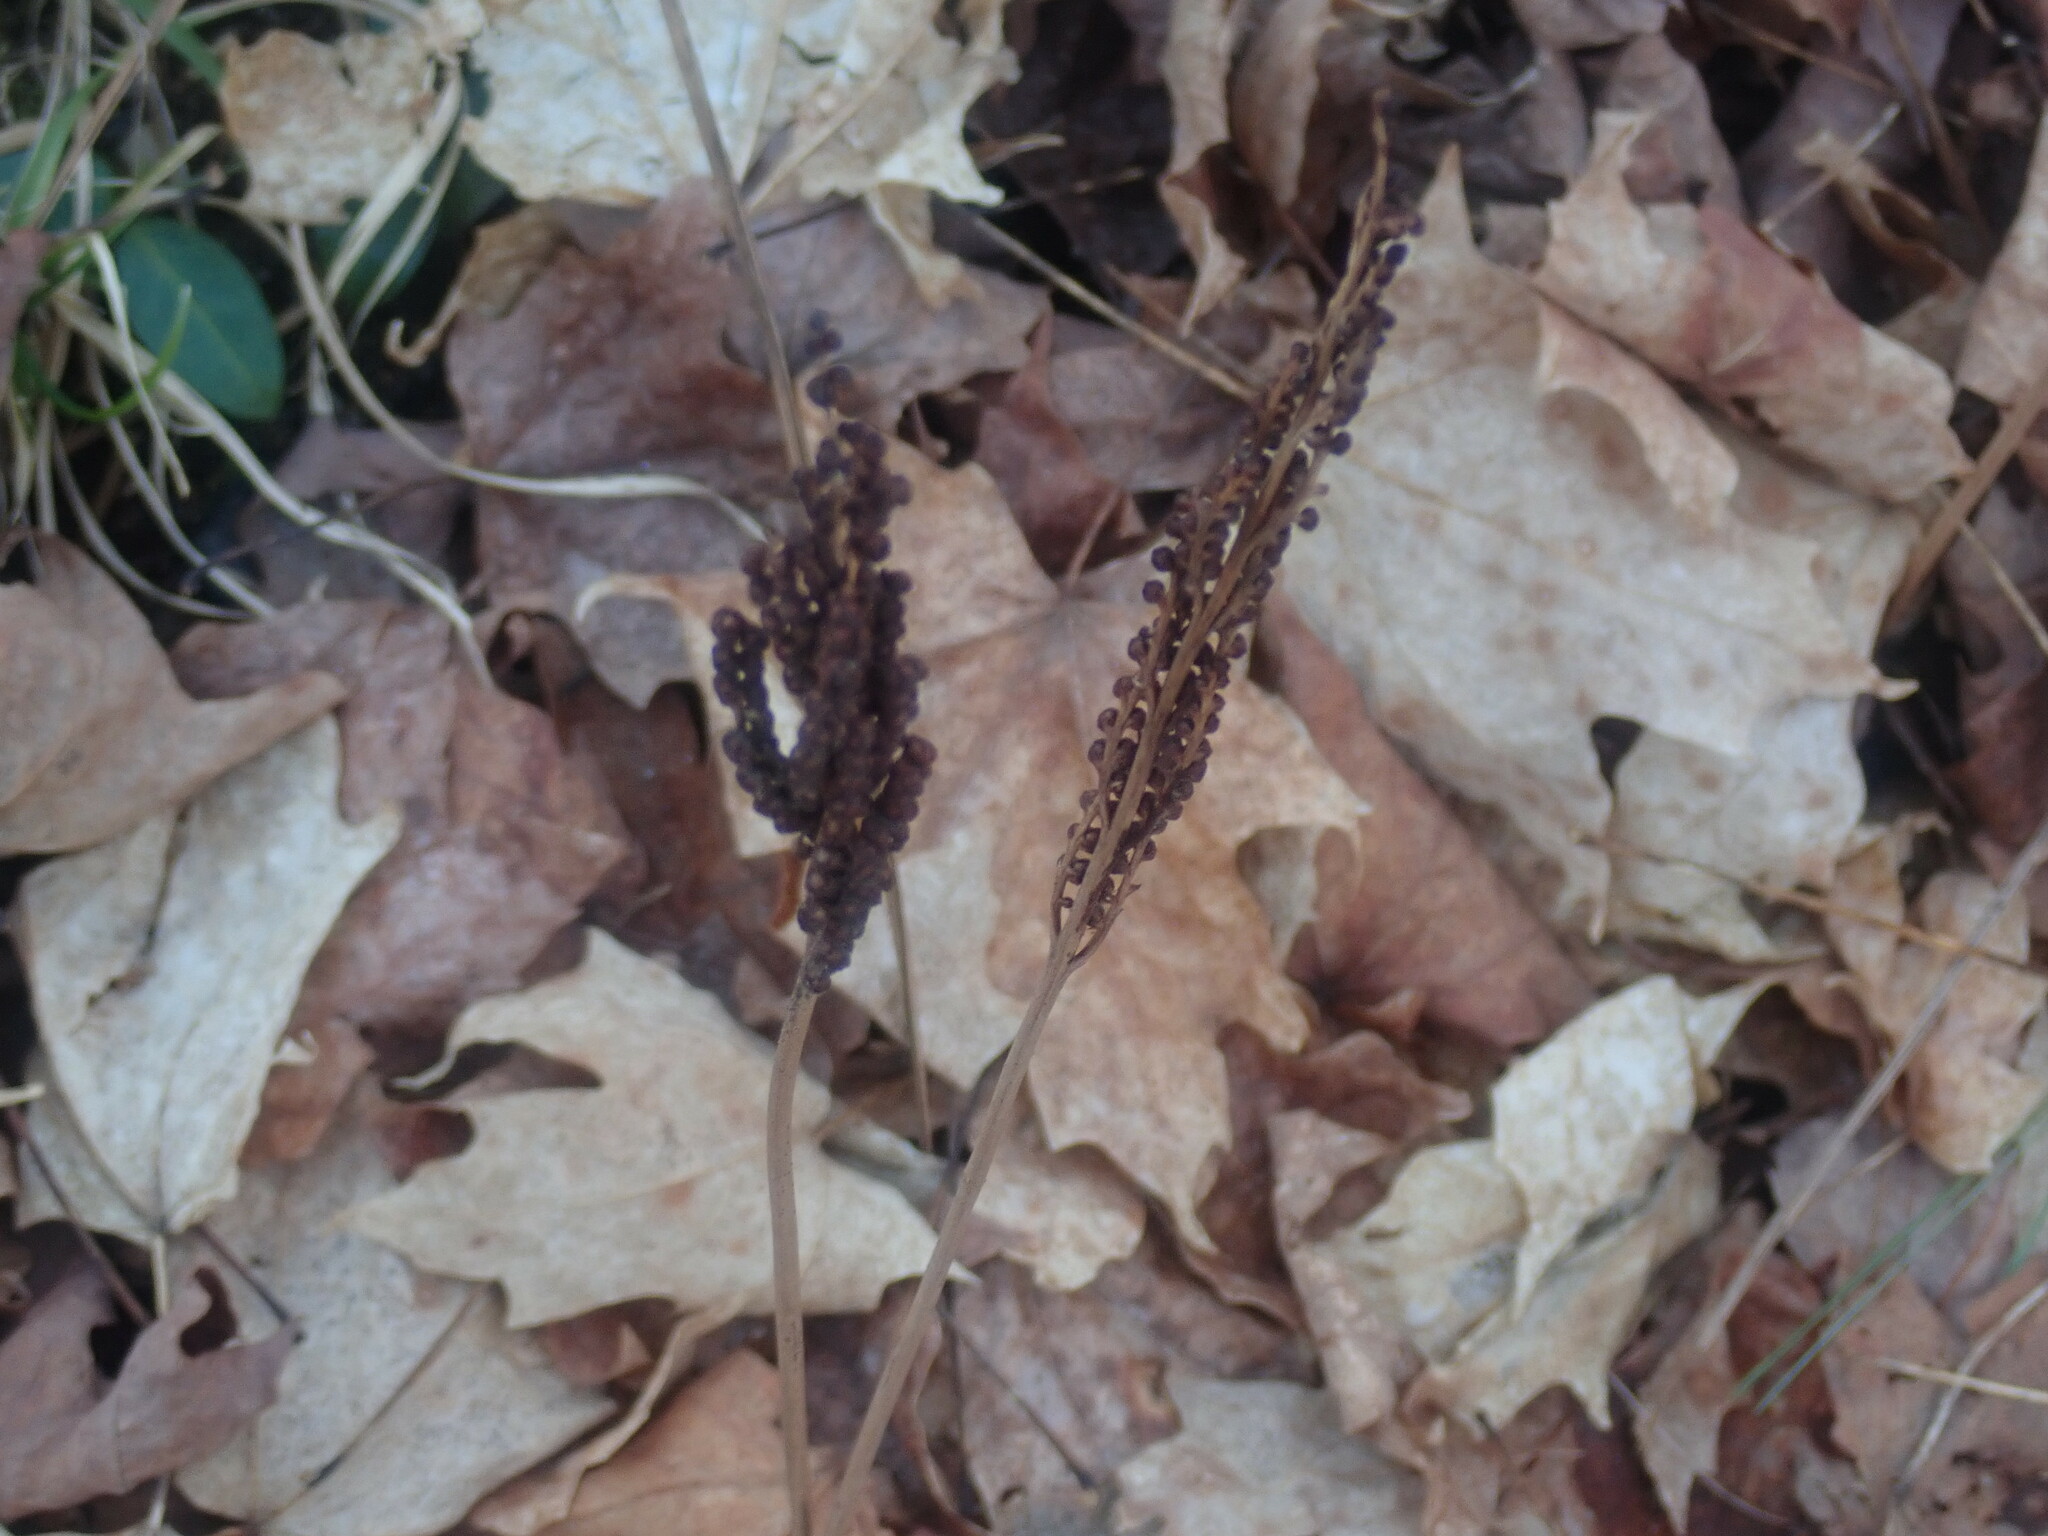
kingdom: Plantae
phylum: Tracheophyta
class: Polypodiopsida
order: Polypodiales
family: Onocleaceae
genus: Onoclea
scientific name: Onoclea sensibilis
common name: Sensitive fern
